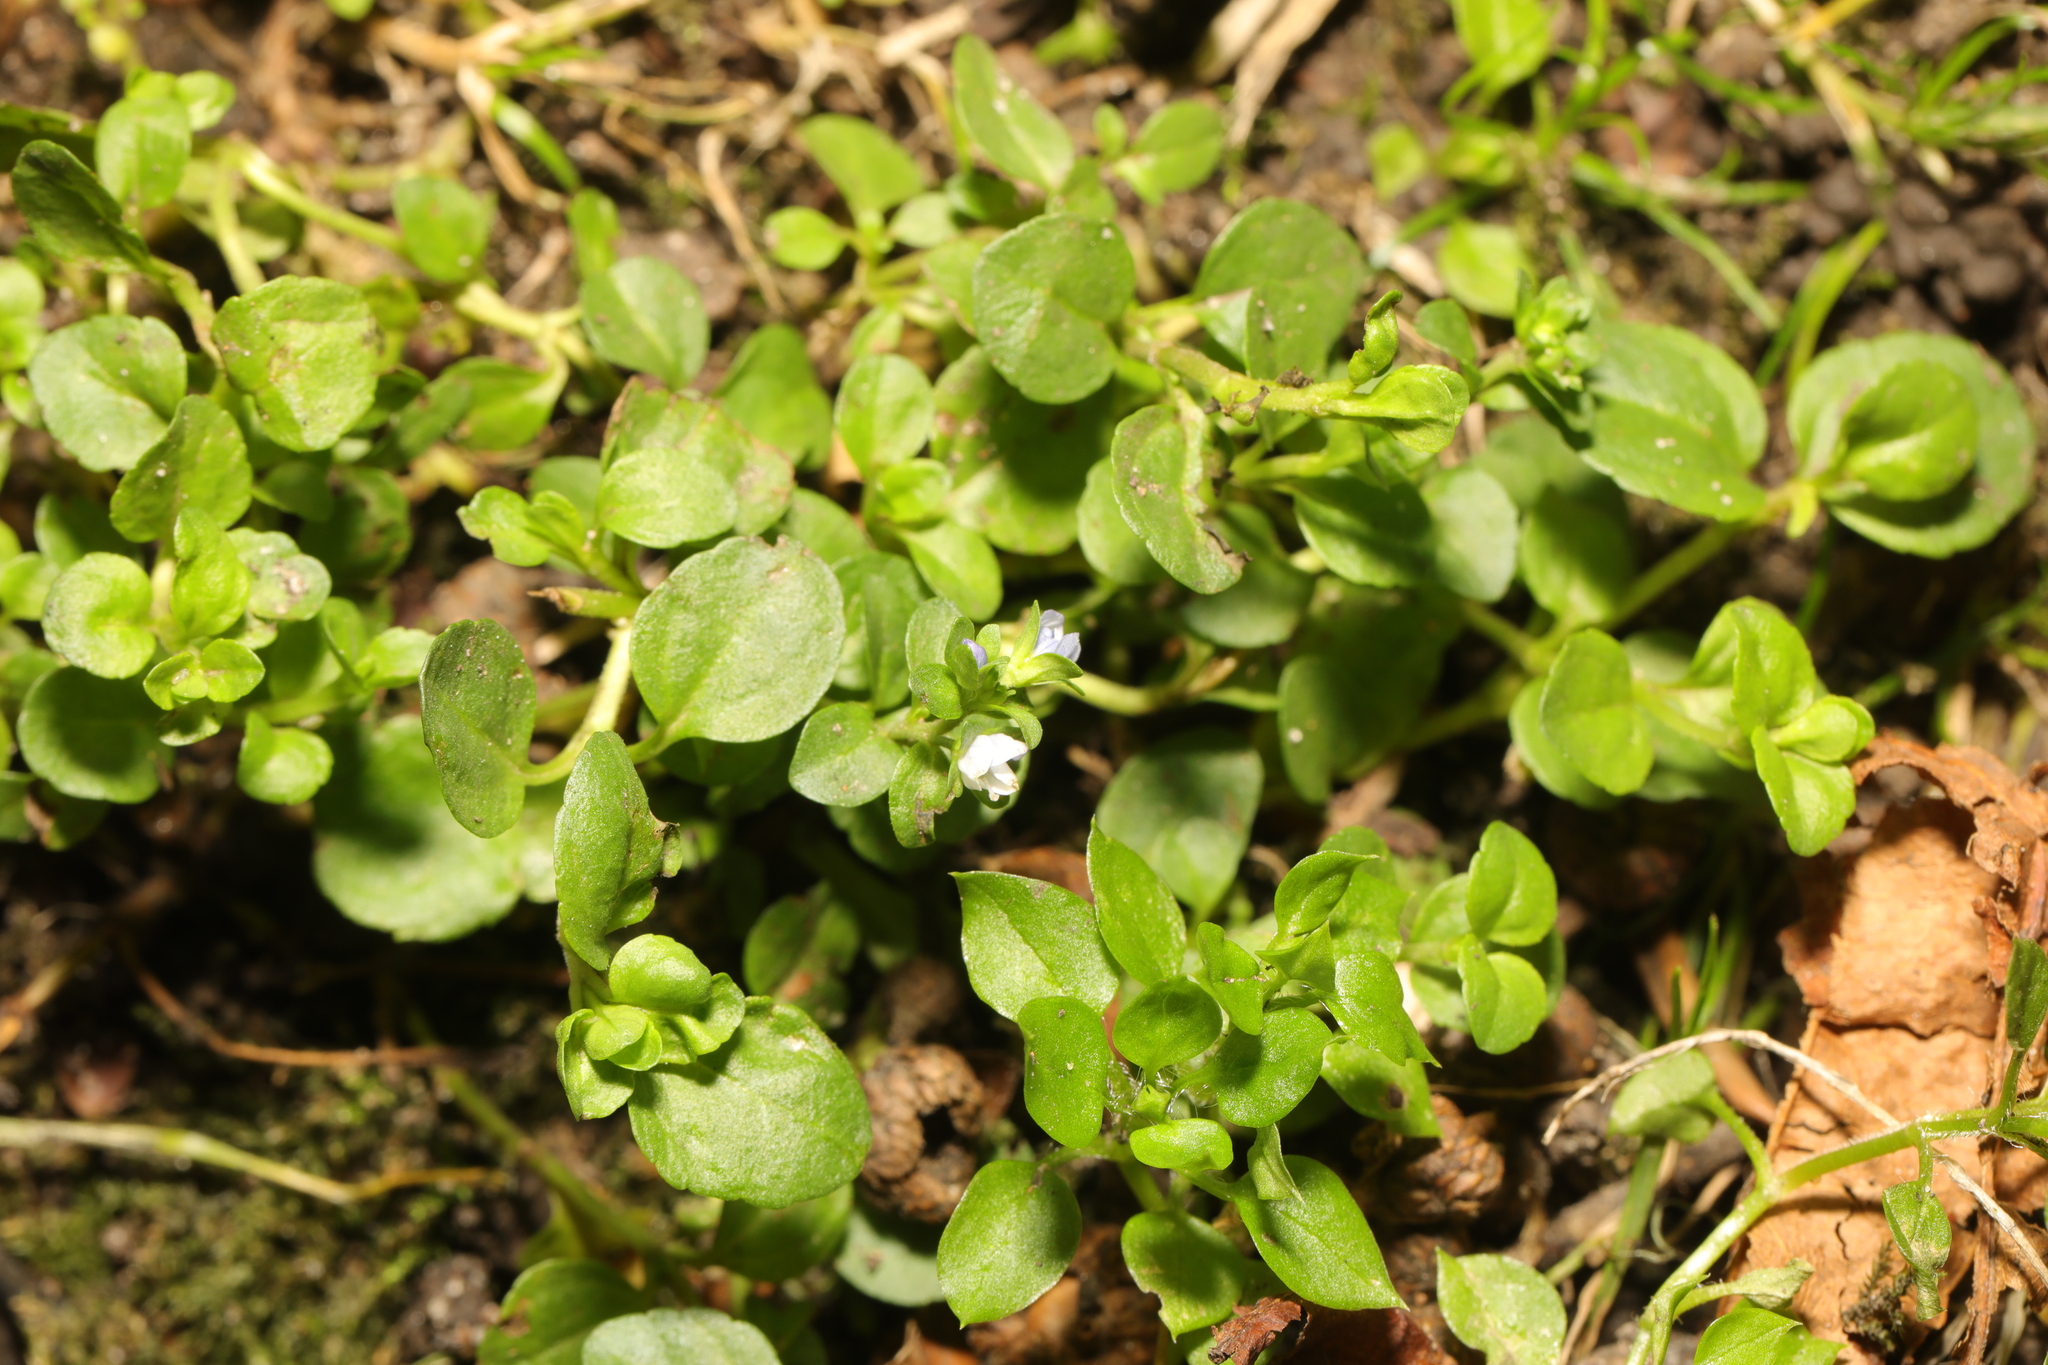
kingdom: Plantae
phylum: Tracheophyta
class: Magnoliopsida
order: Lamiales
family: Plantaginaceae
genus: Veronica
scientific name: Veronica serpyllifolia
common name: Thyme-leaved speedwell
